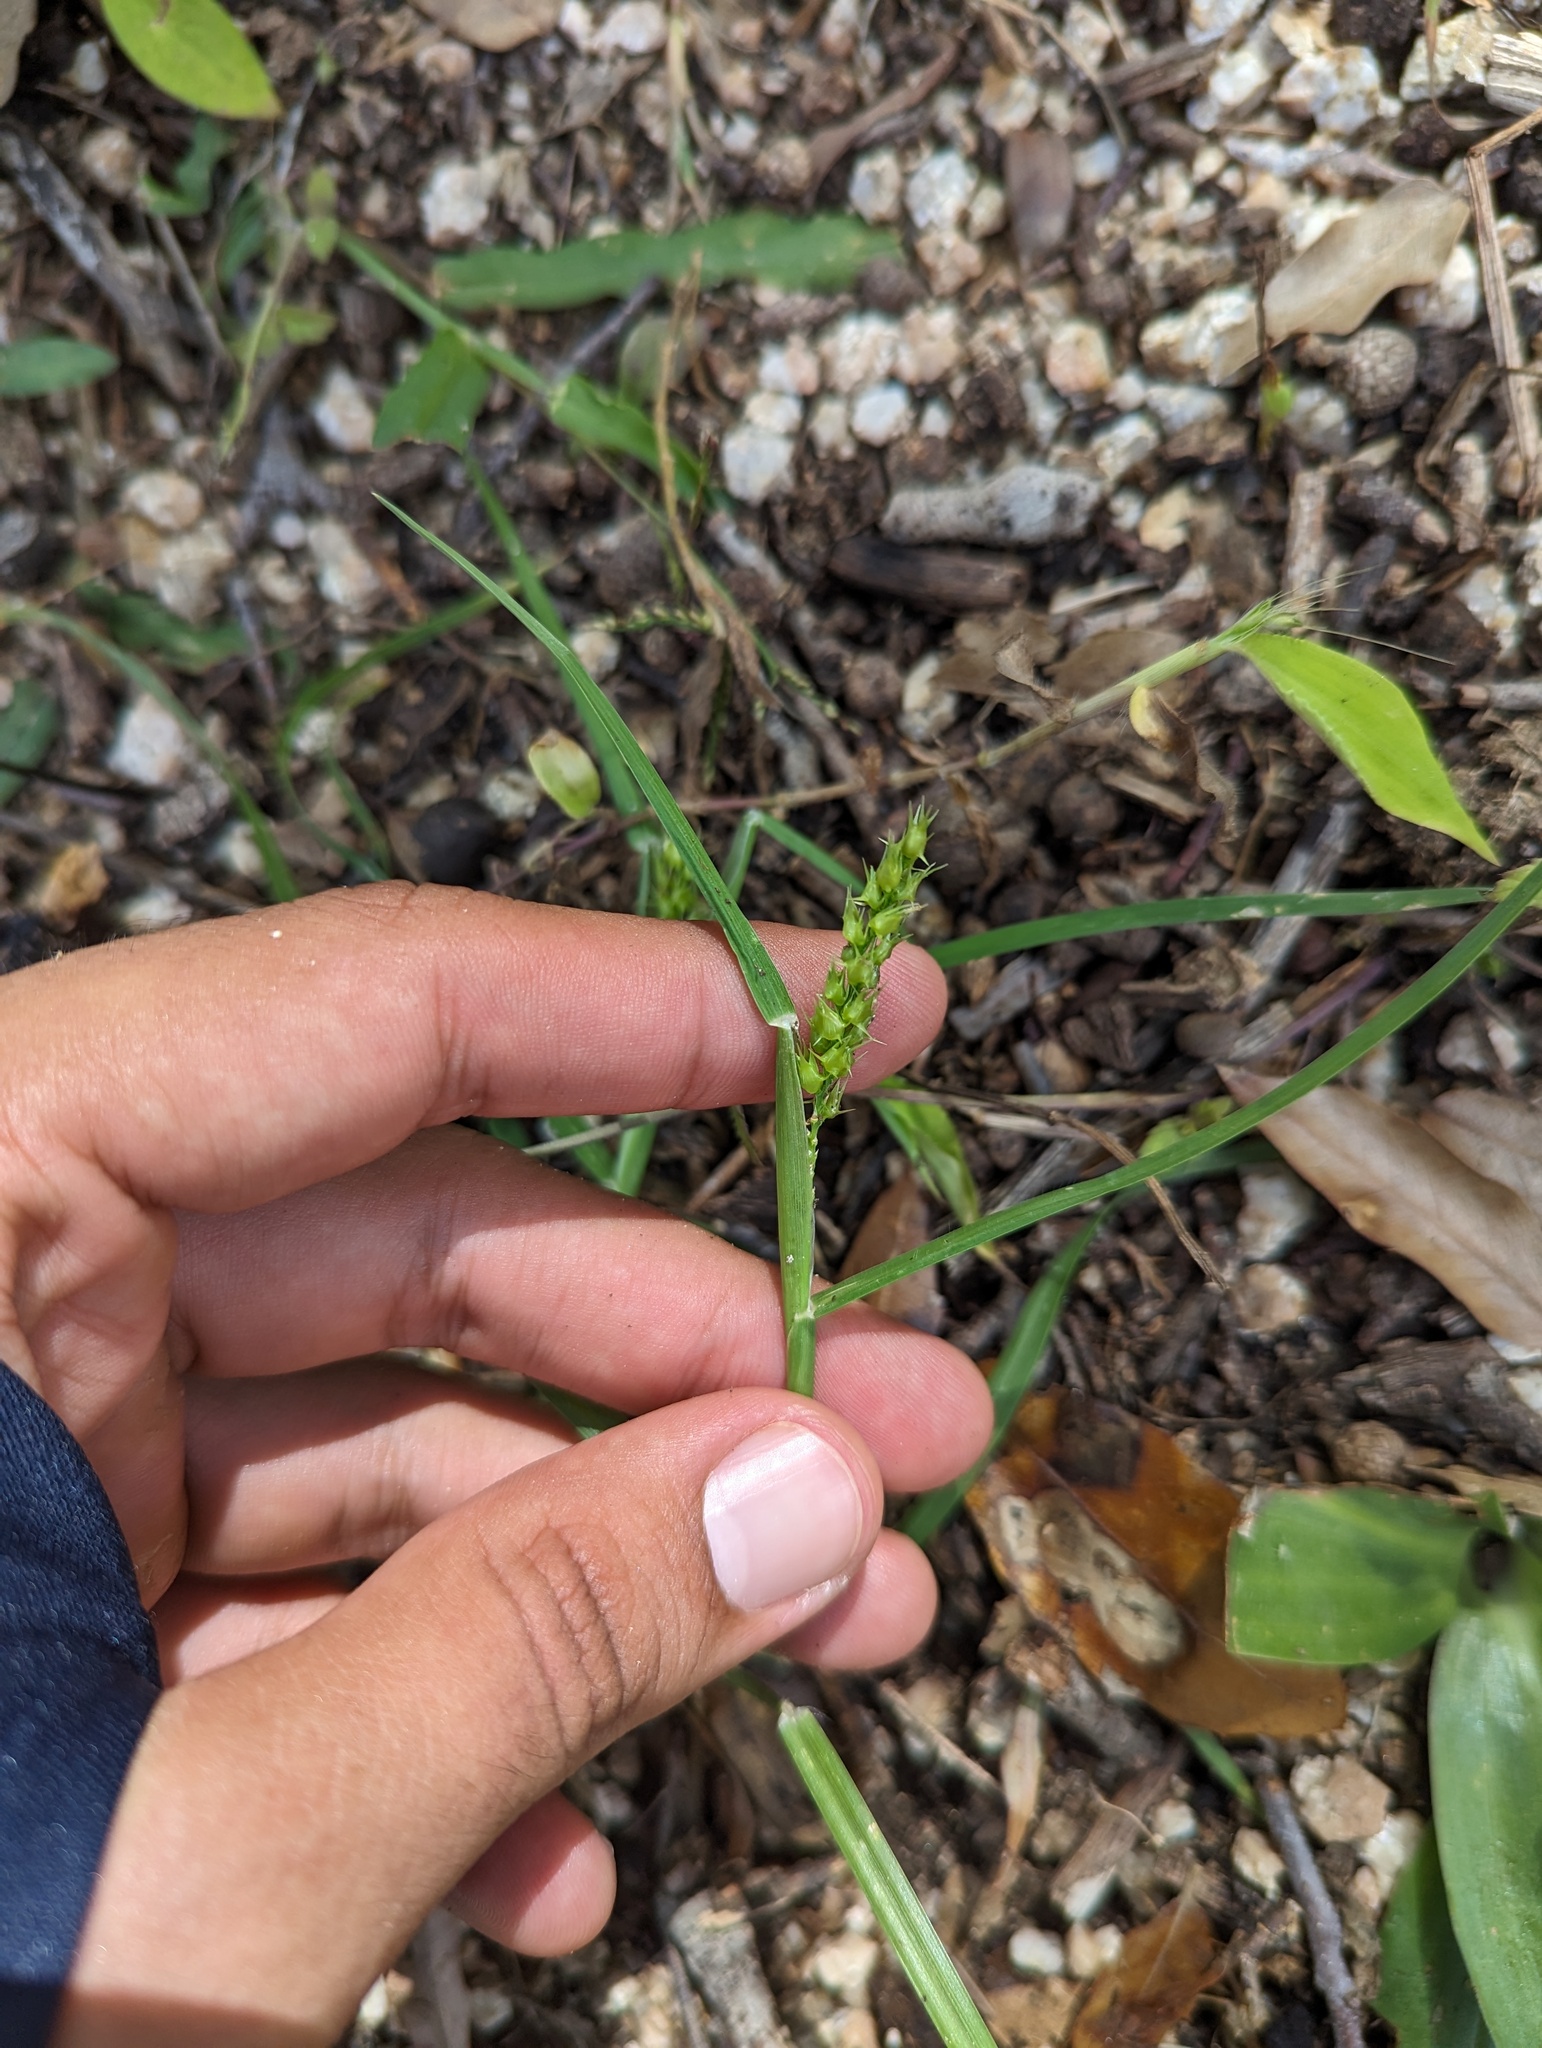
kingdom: Plantae
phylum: Tracheophyta
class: Liliopsida
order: Poales
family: Poaceae
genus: Cenchrus
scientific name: Cenchrus spinifex
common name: Coast sandbur
